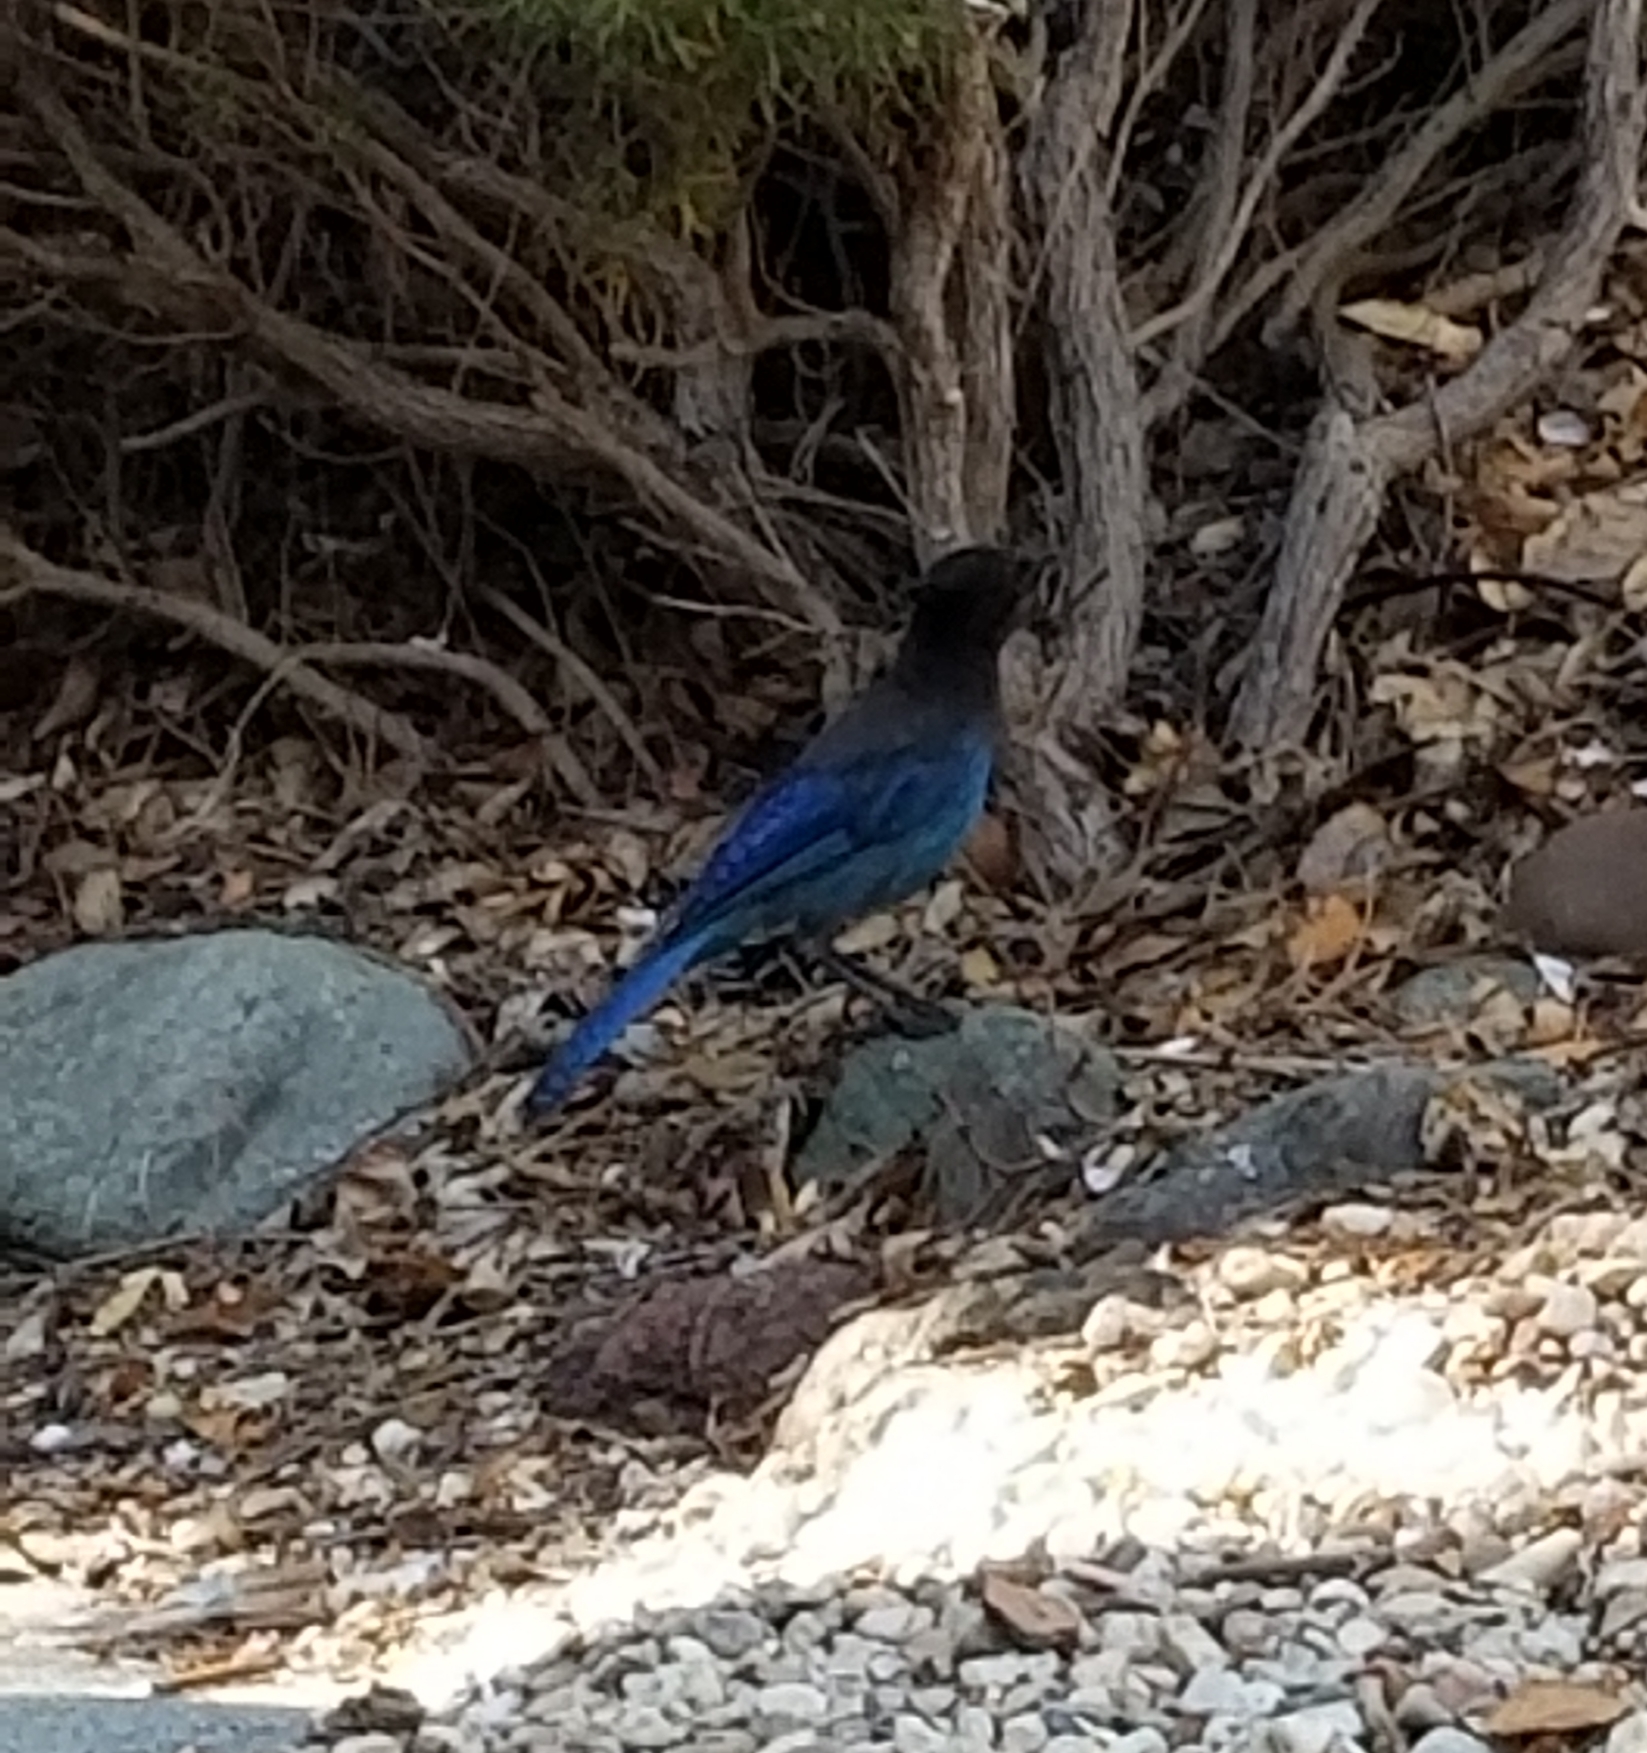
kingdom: Animalia
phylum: Chordata
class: Aves
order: Passeriformes
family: Corvidae
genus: Cyanocitta
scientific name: Cyanocitta stelleri
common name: Steller's jay
